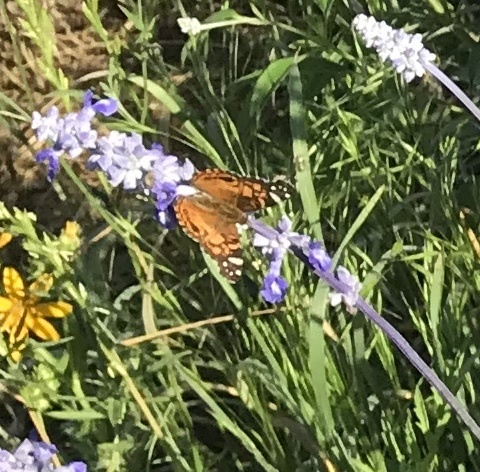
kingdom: Animalia
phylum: Arthropoda
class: Insecta
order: Lepidoptera
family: Nymphalidae
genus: Vanessa
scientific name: Vanessa virginiensis
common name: American lady
